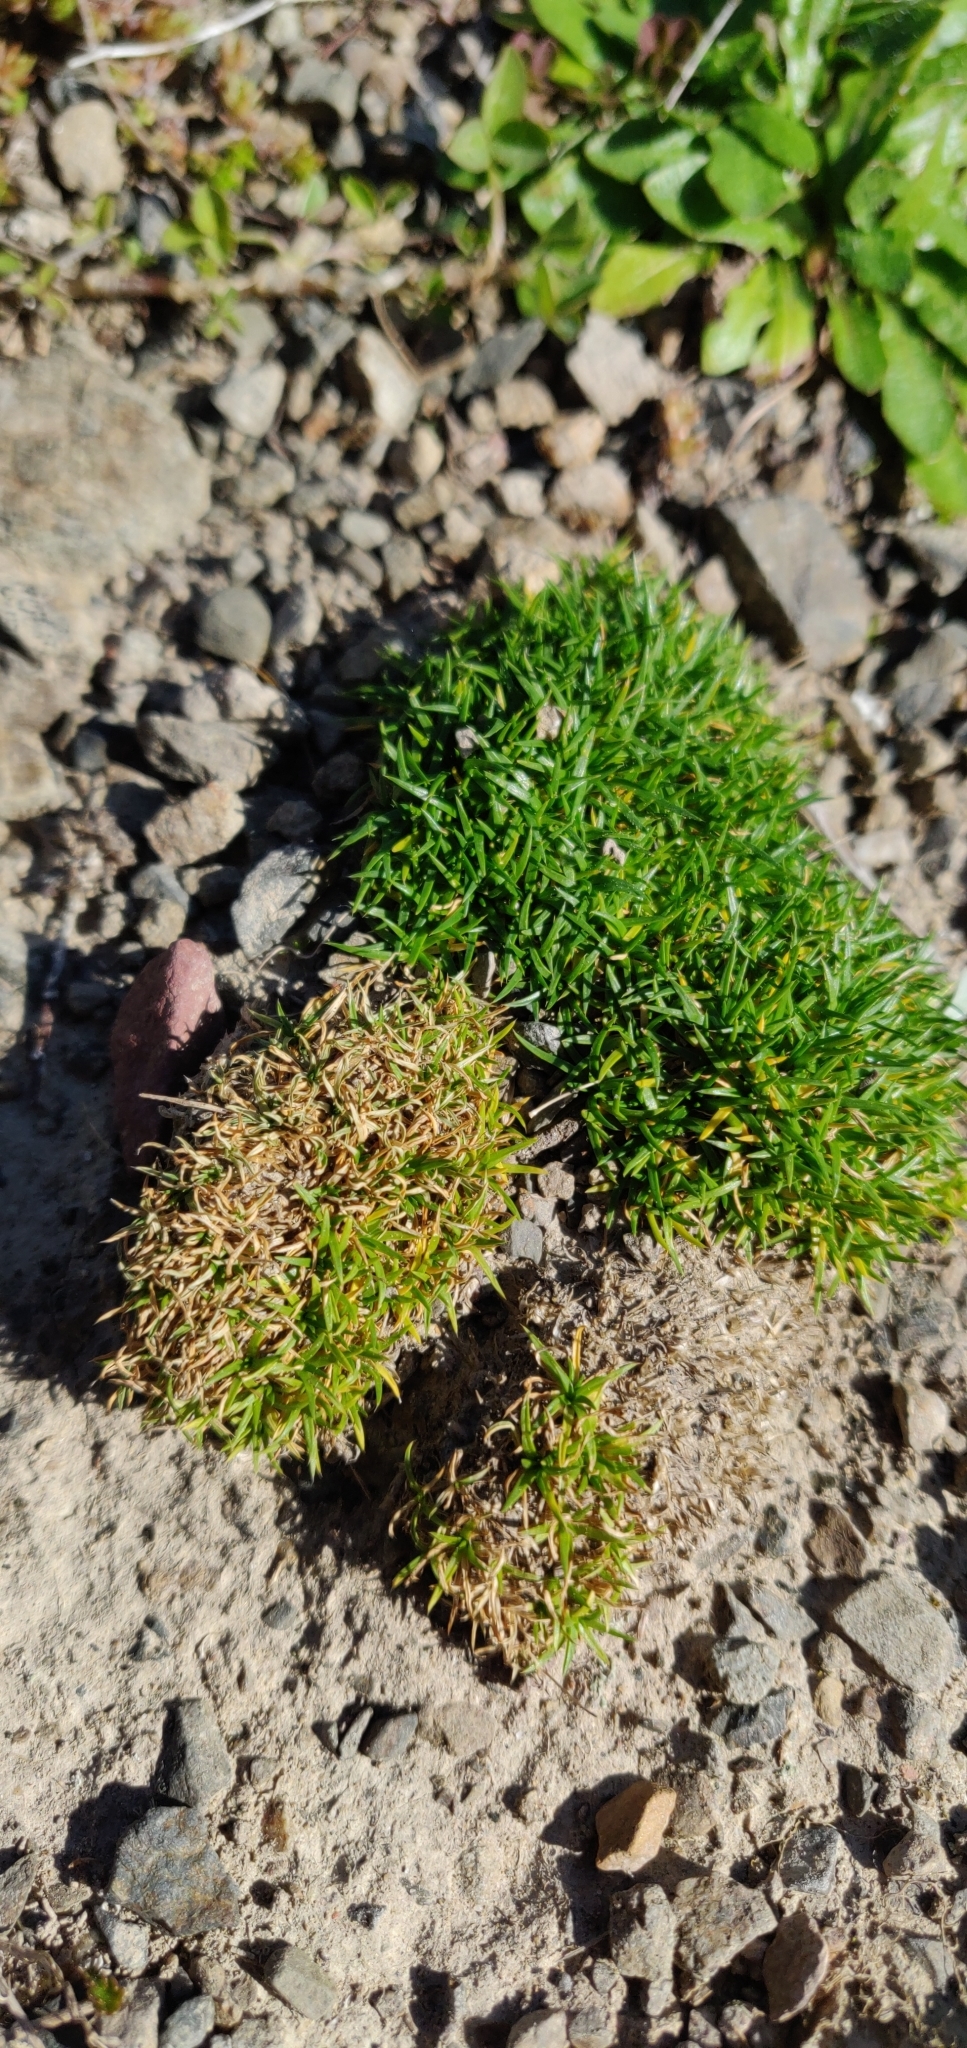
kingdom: Plantae
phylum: Tracheophyta
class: Magnoliopsida
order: Caryophyllales
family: Caryophyllaceae
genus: Sagina
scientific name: Sagina procumbens
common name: Procumbent pearlwort
